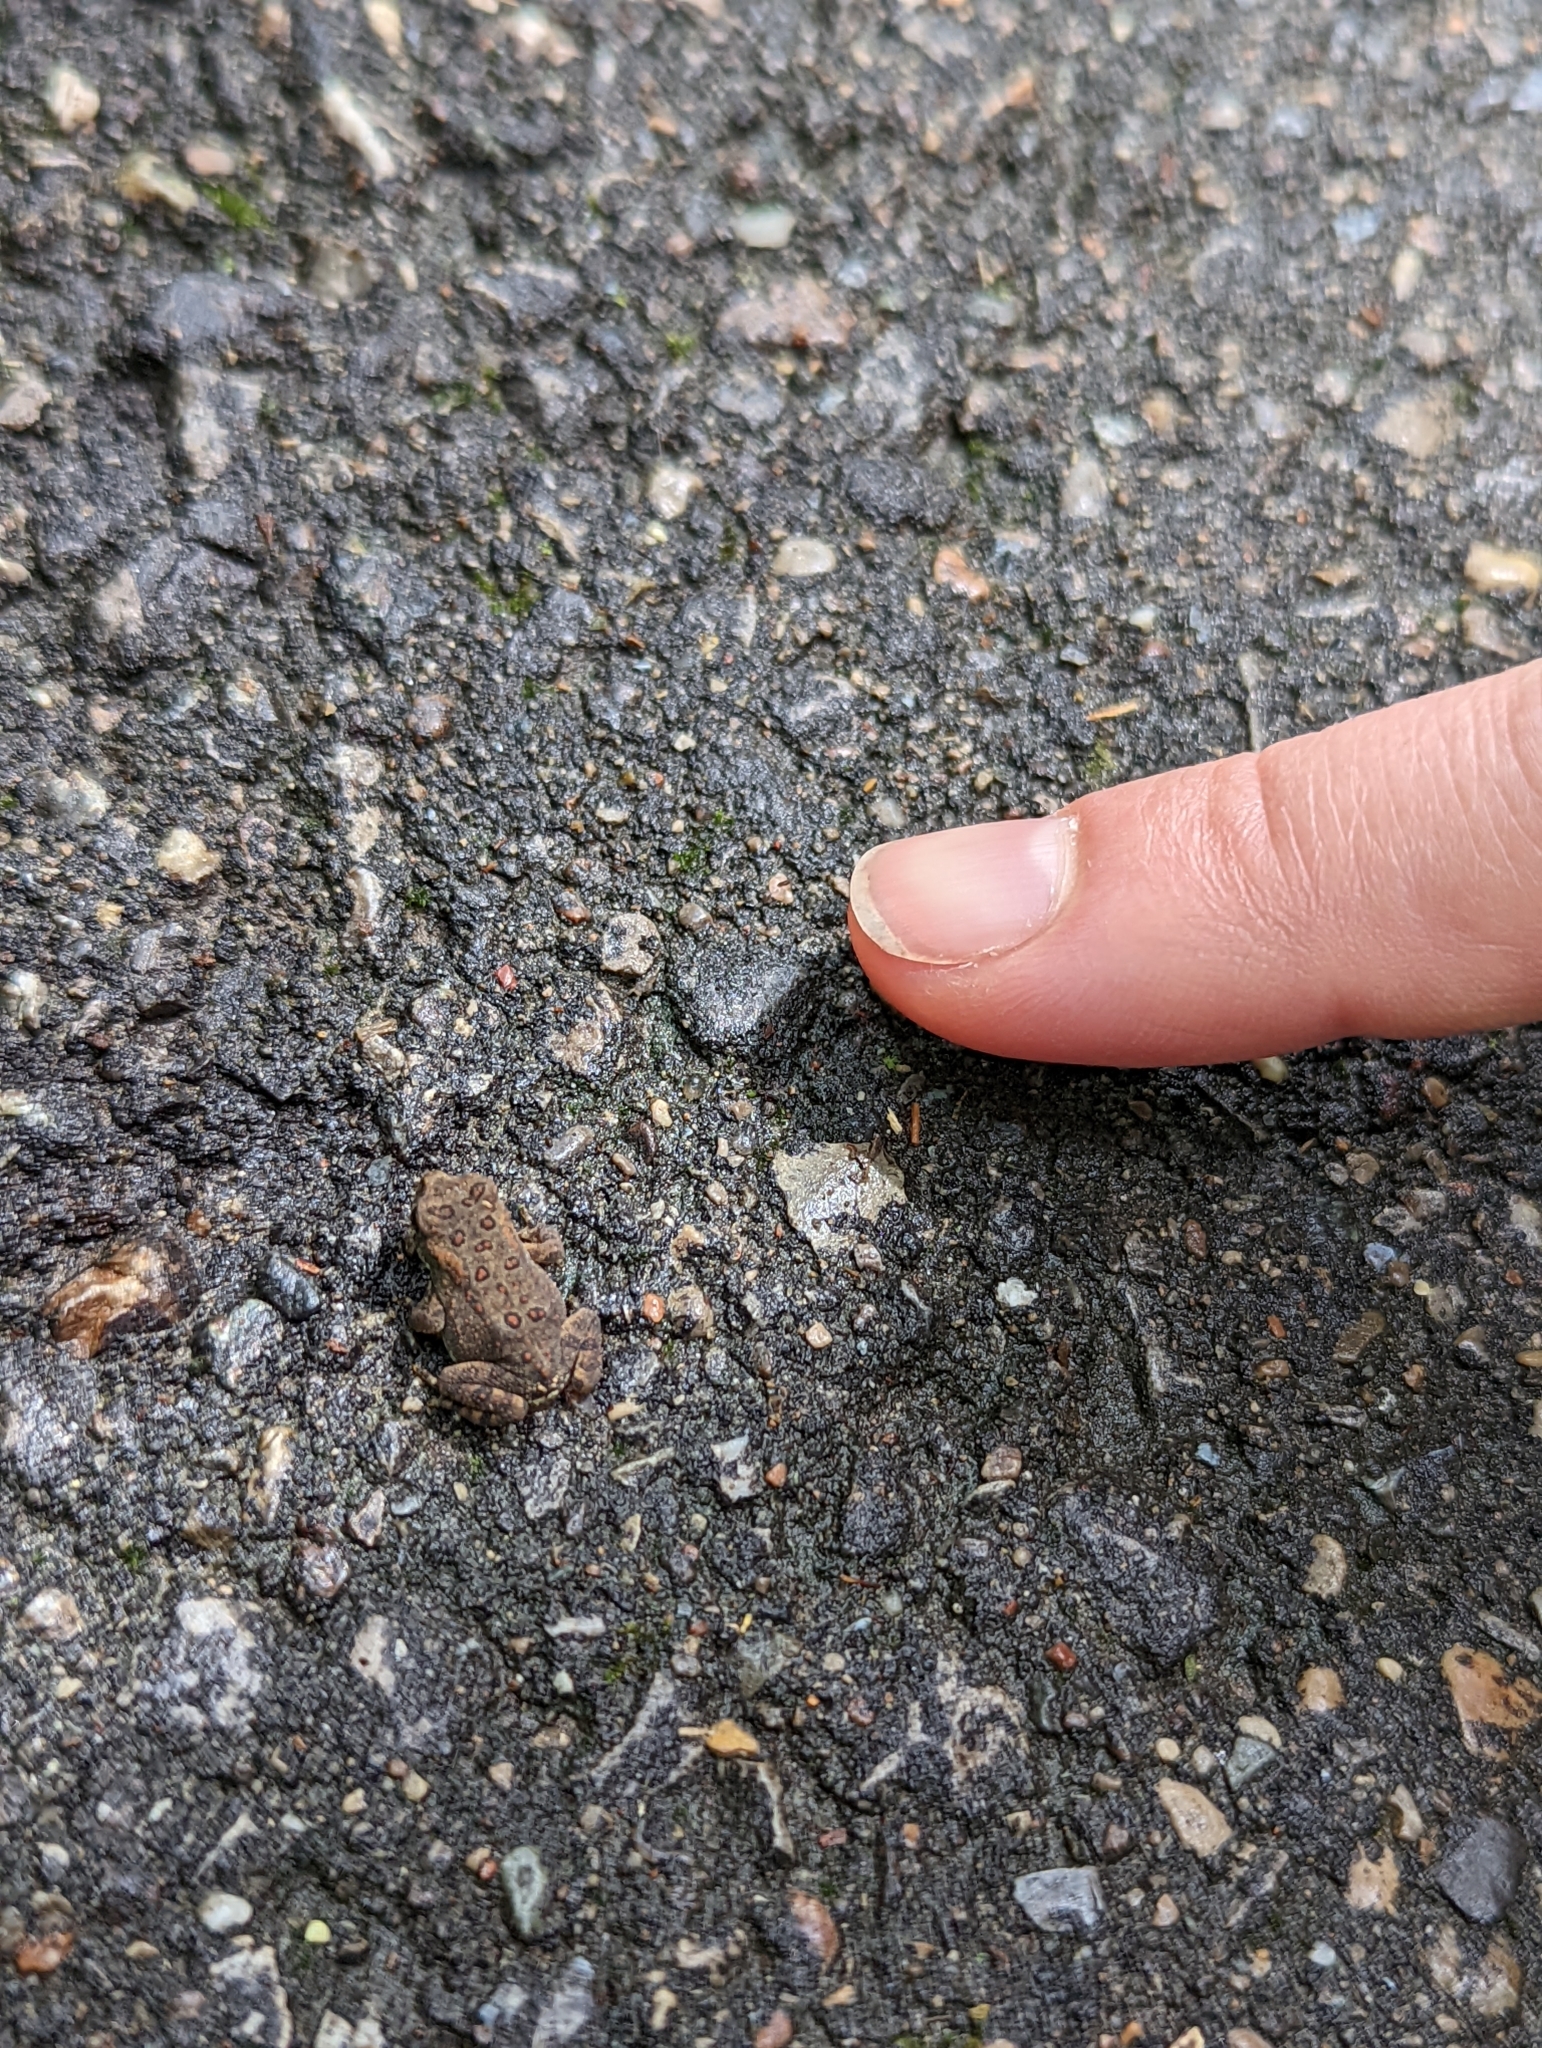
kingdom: Animalia
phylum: Chordata
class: Amphibia
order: Anura
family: Bufonidae
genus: Anaxyrus
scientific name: Anaxyrus americanus
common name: American toad
